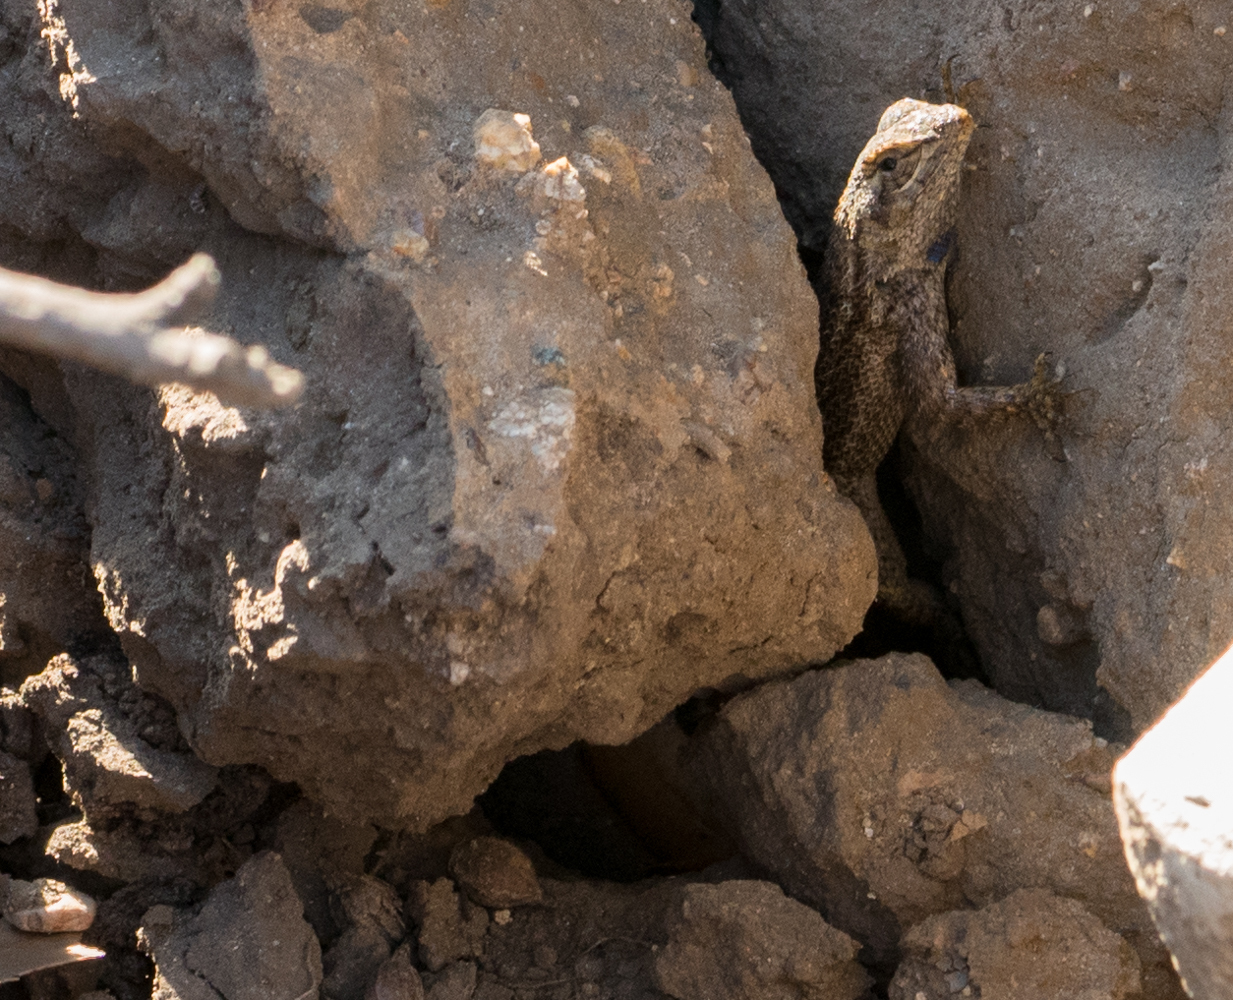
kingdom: Animalia
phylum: Chordata
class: Squamata
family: Phrynosomatidae
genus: Sceloporus
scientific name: Sceloporus occidentalis
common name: Western fence lizard
